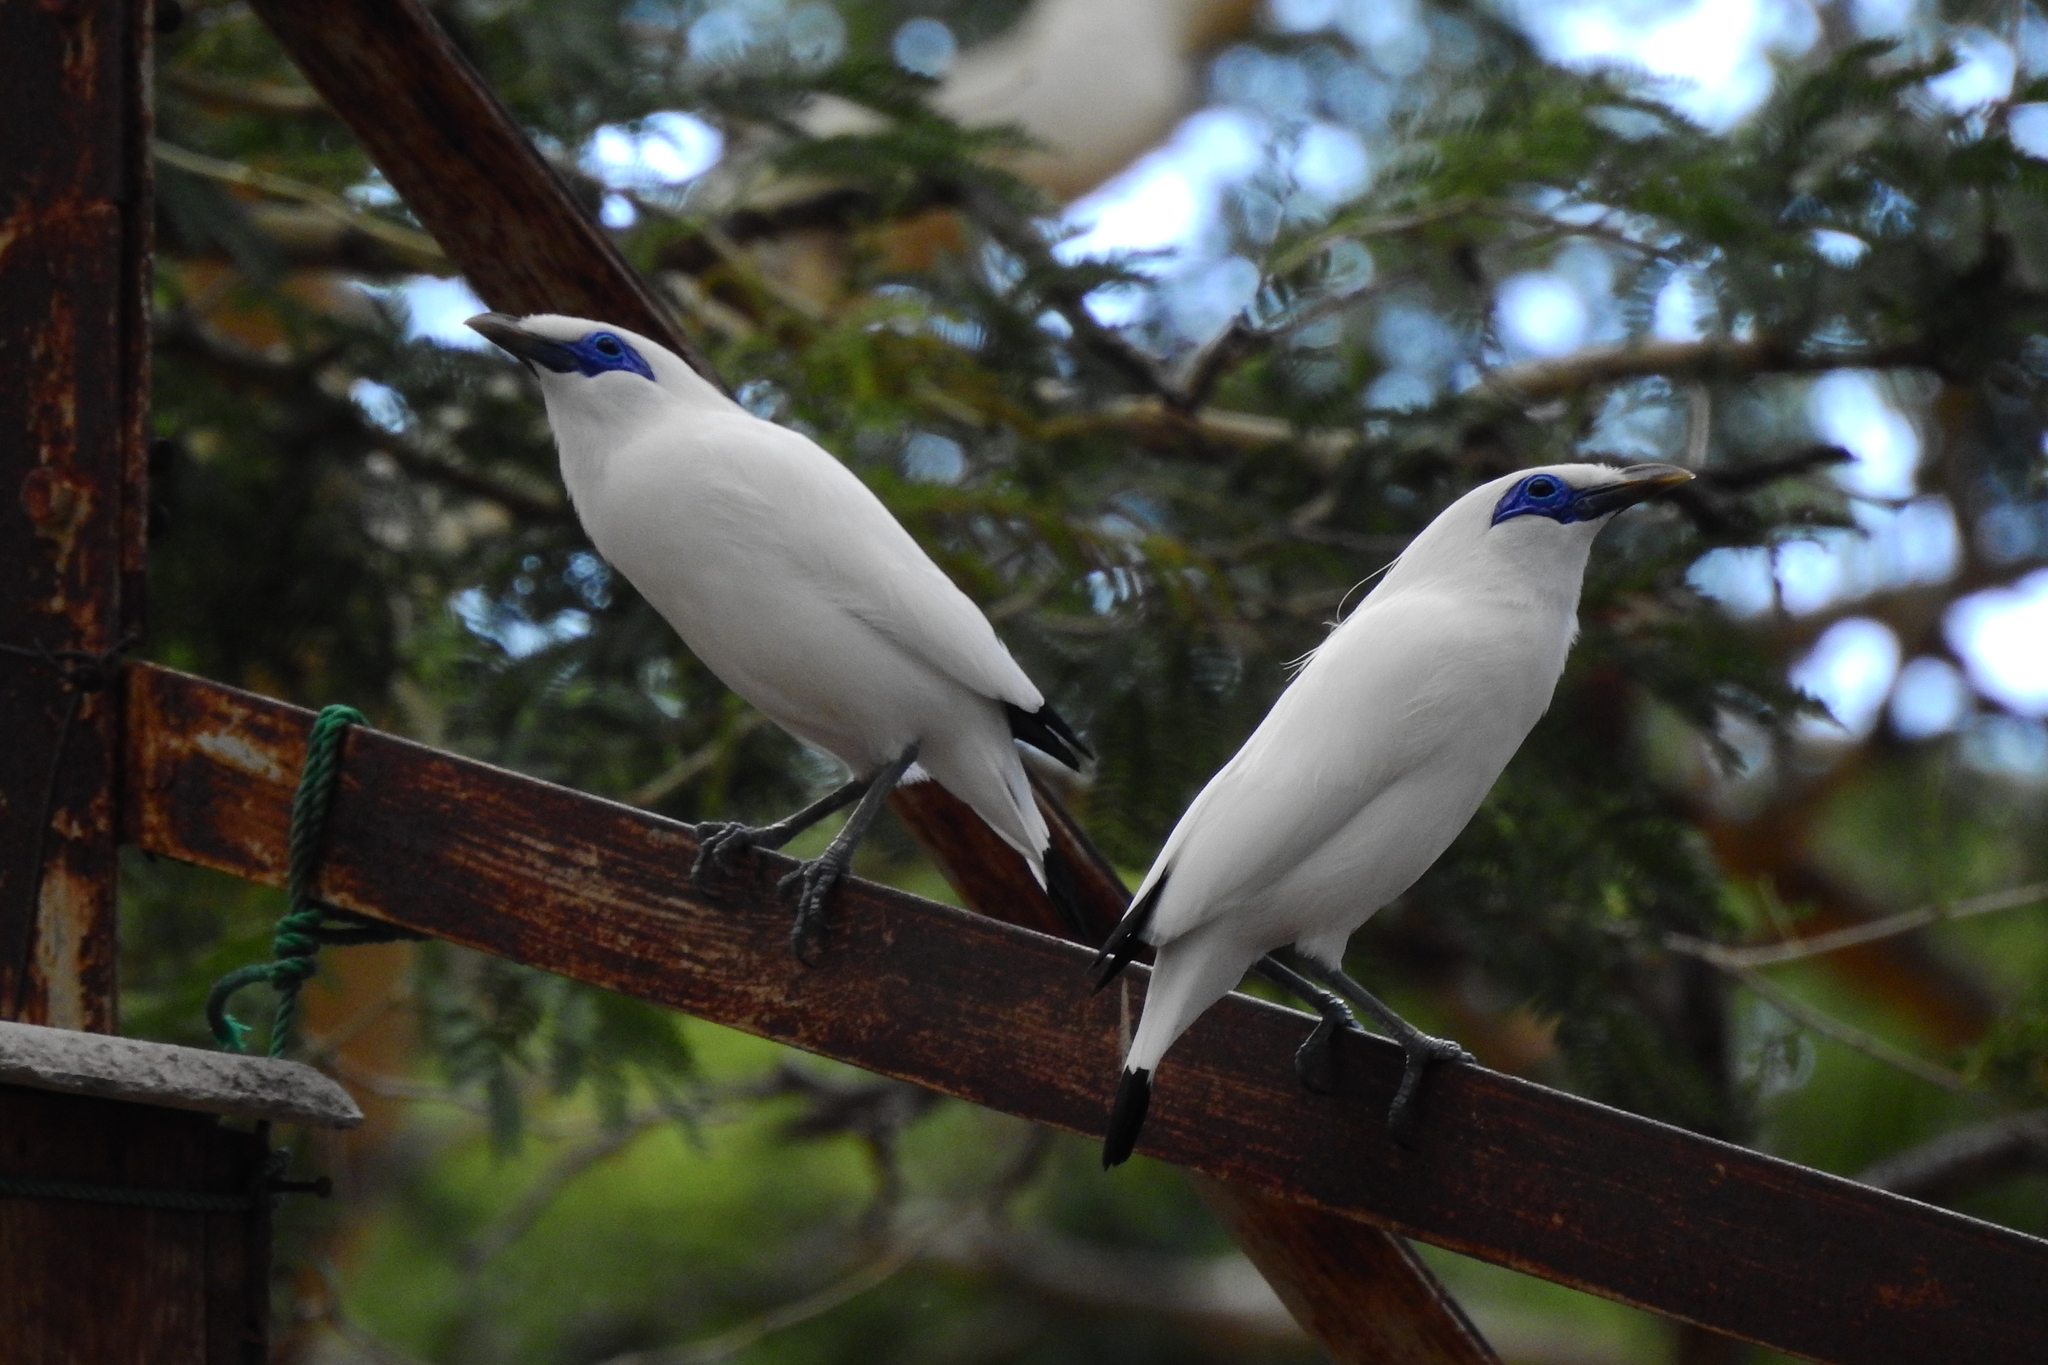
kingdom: Animalia
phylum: Chordata
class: Aves
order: Passeriformes
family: Sturnidae
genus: Leucopsar
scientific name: Leucopsar rothschildi
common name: Bali myna
